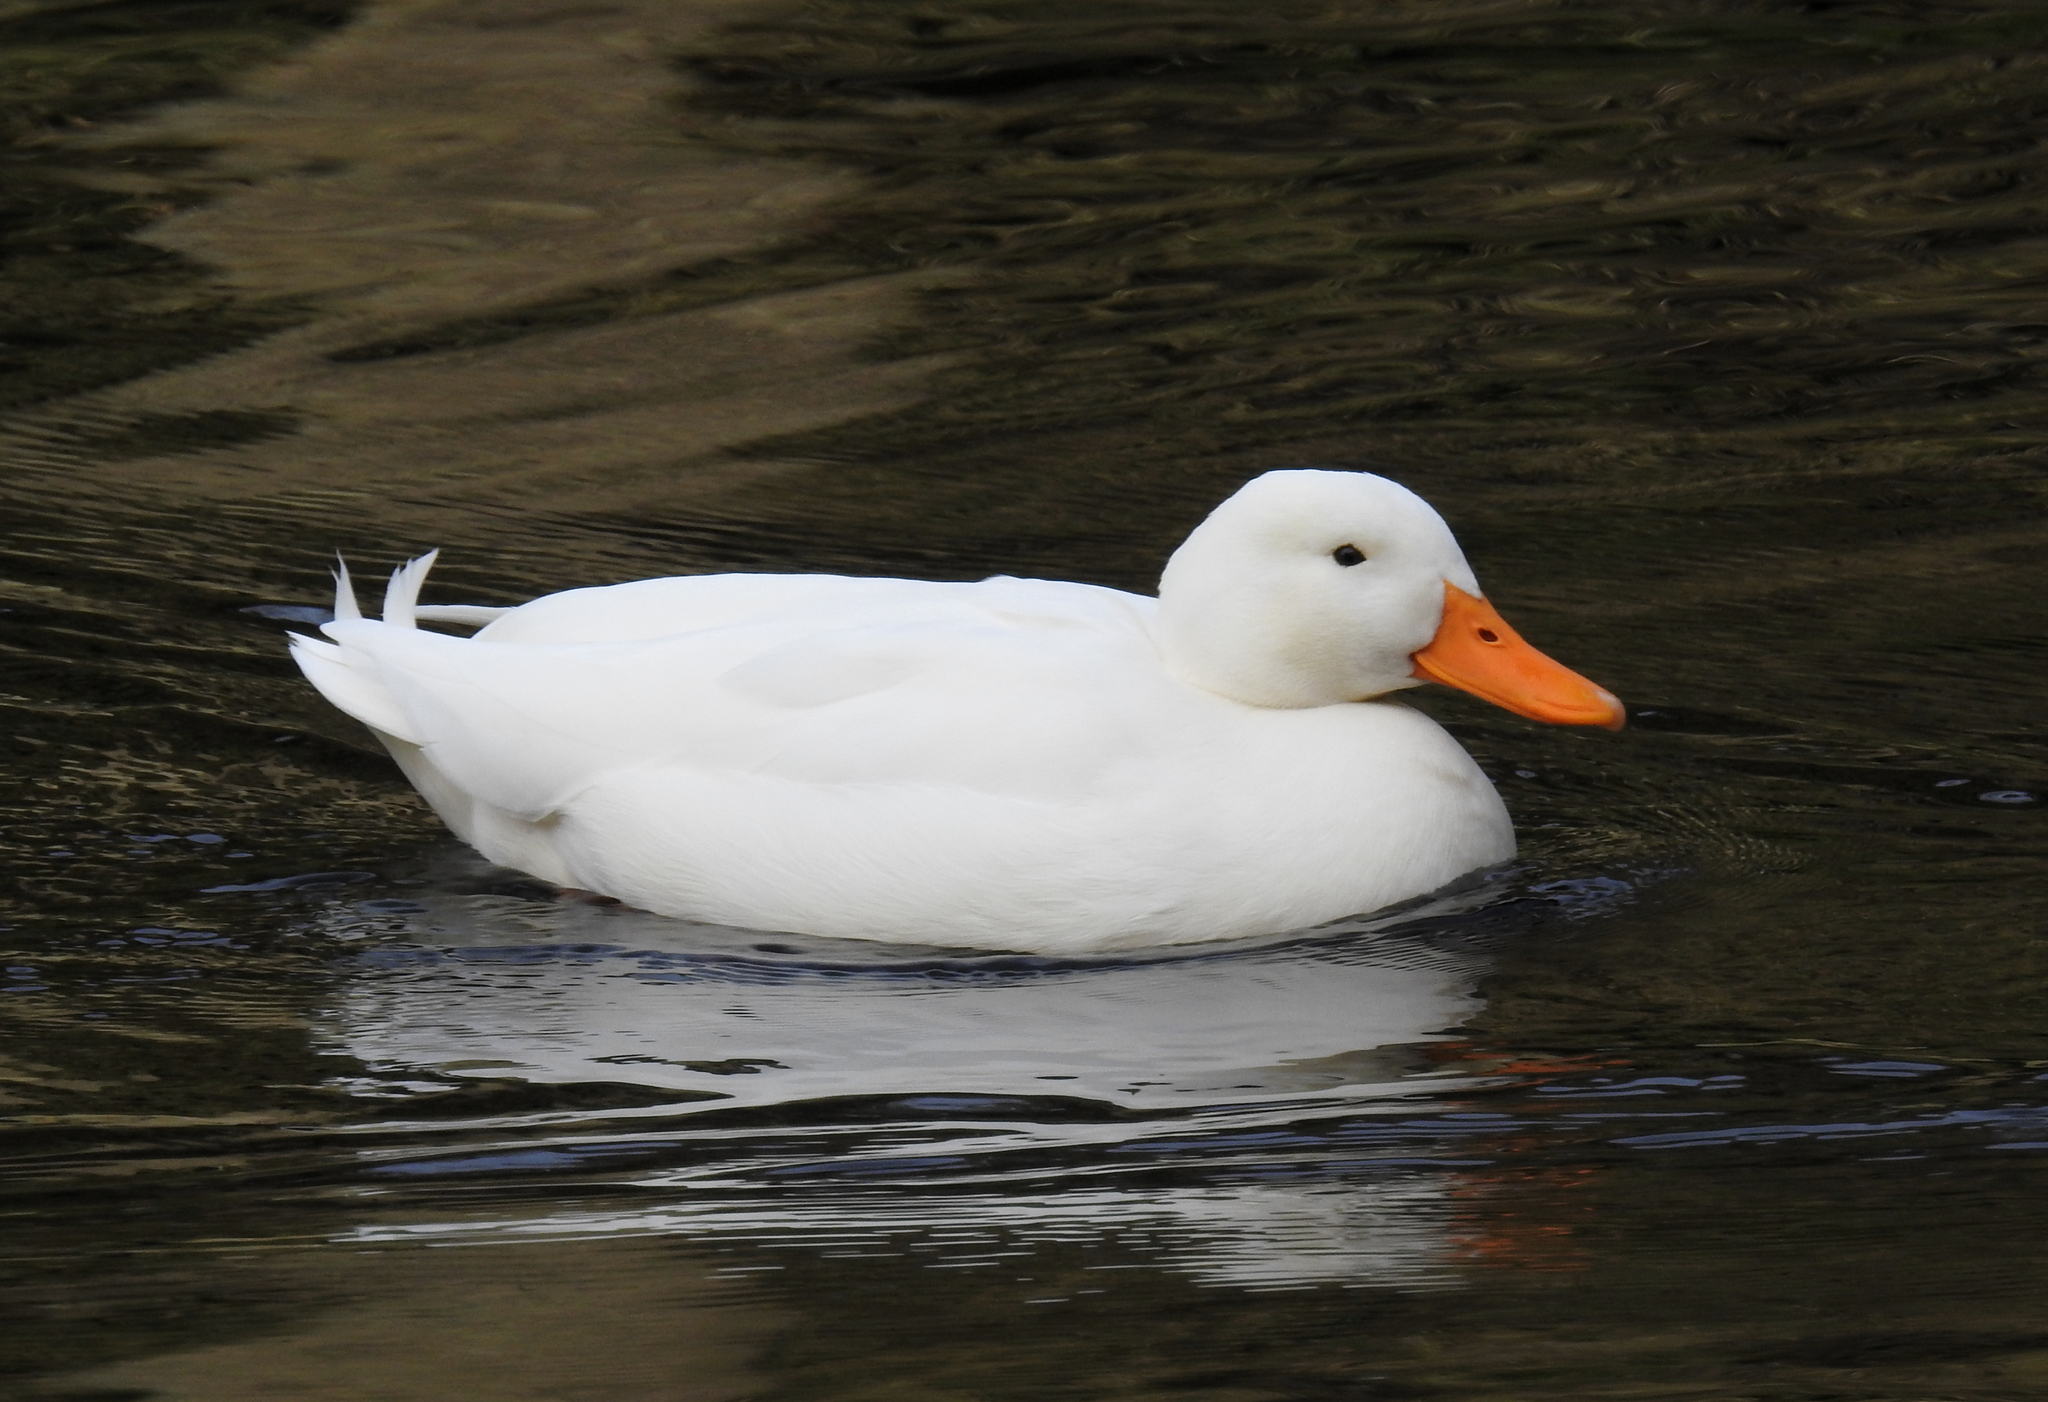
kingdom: Animalia
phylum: Chordata
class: Aves
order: Anseriformes
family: Anatidae
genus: Anas
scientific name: Anas platyrhynchos
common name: Mallard
